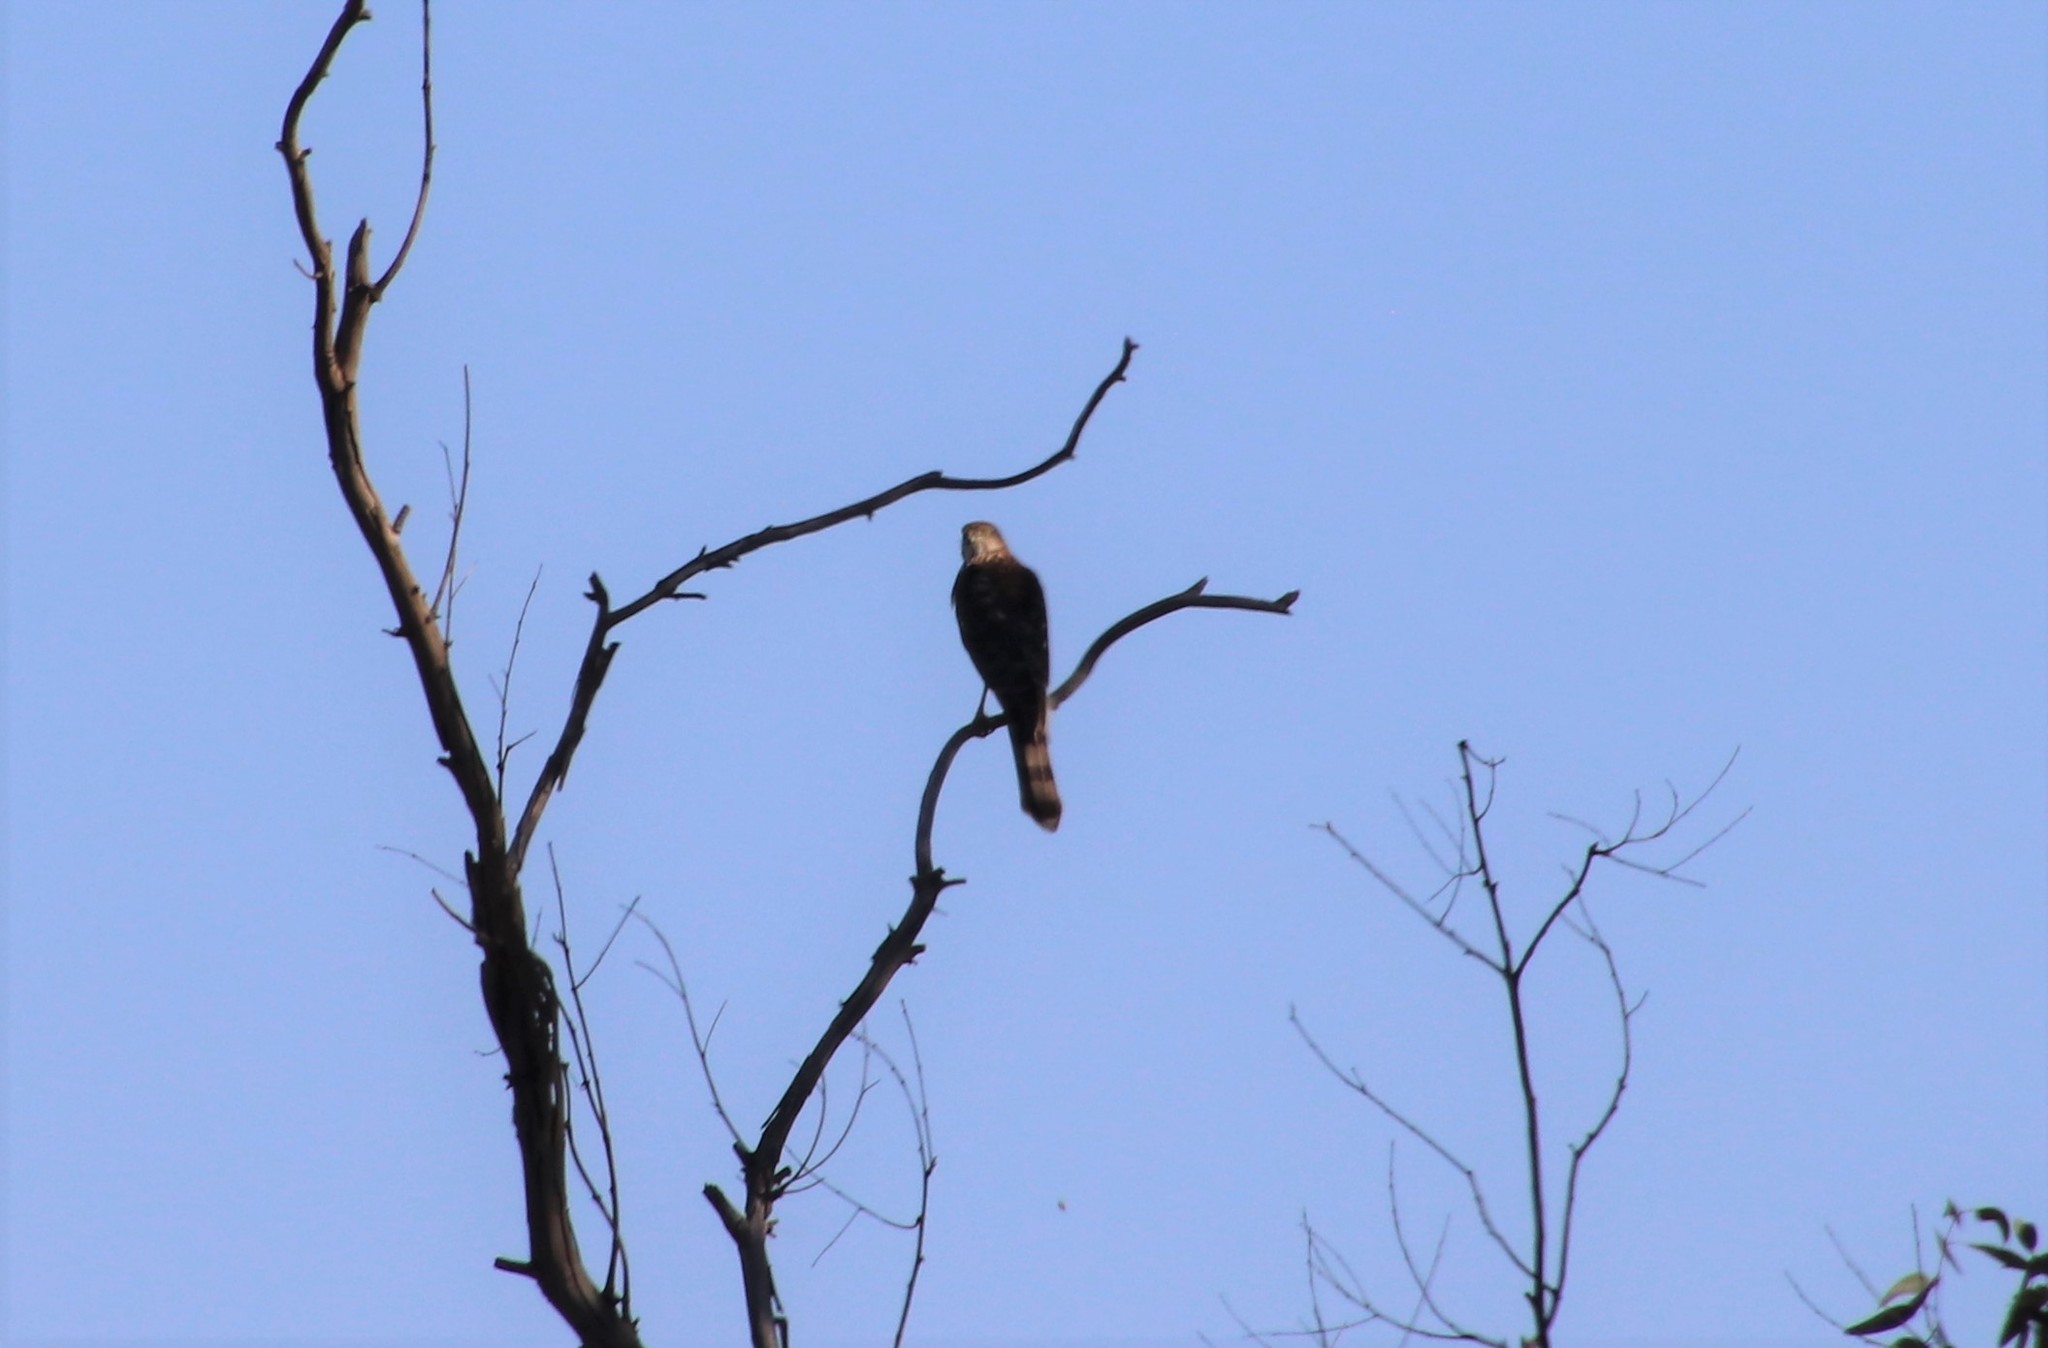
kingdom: Animalia
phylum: Chordata
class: Aves
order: Accipitriformes
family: Accipitridae
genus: Accipiter
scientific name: Accipiter cooperii
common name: Cooper's hawk
